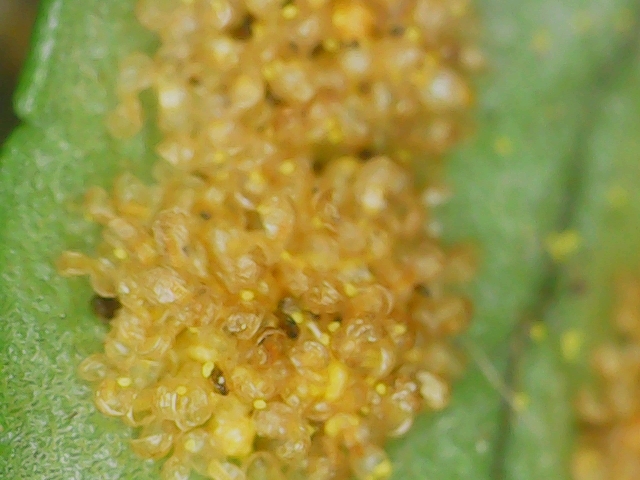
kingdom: Plantae
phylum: Tracheophyta
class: Polypodiopsida
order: Polypodiales
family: Polypodiaceae
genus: Polypodium
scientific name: Polypodium
